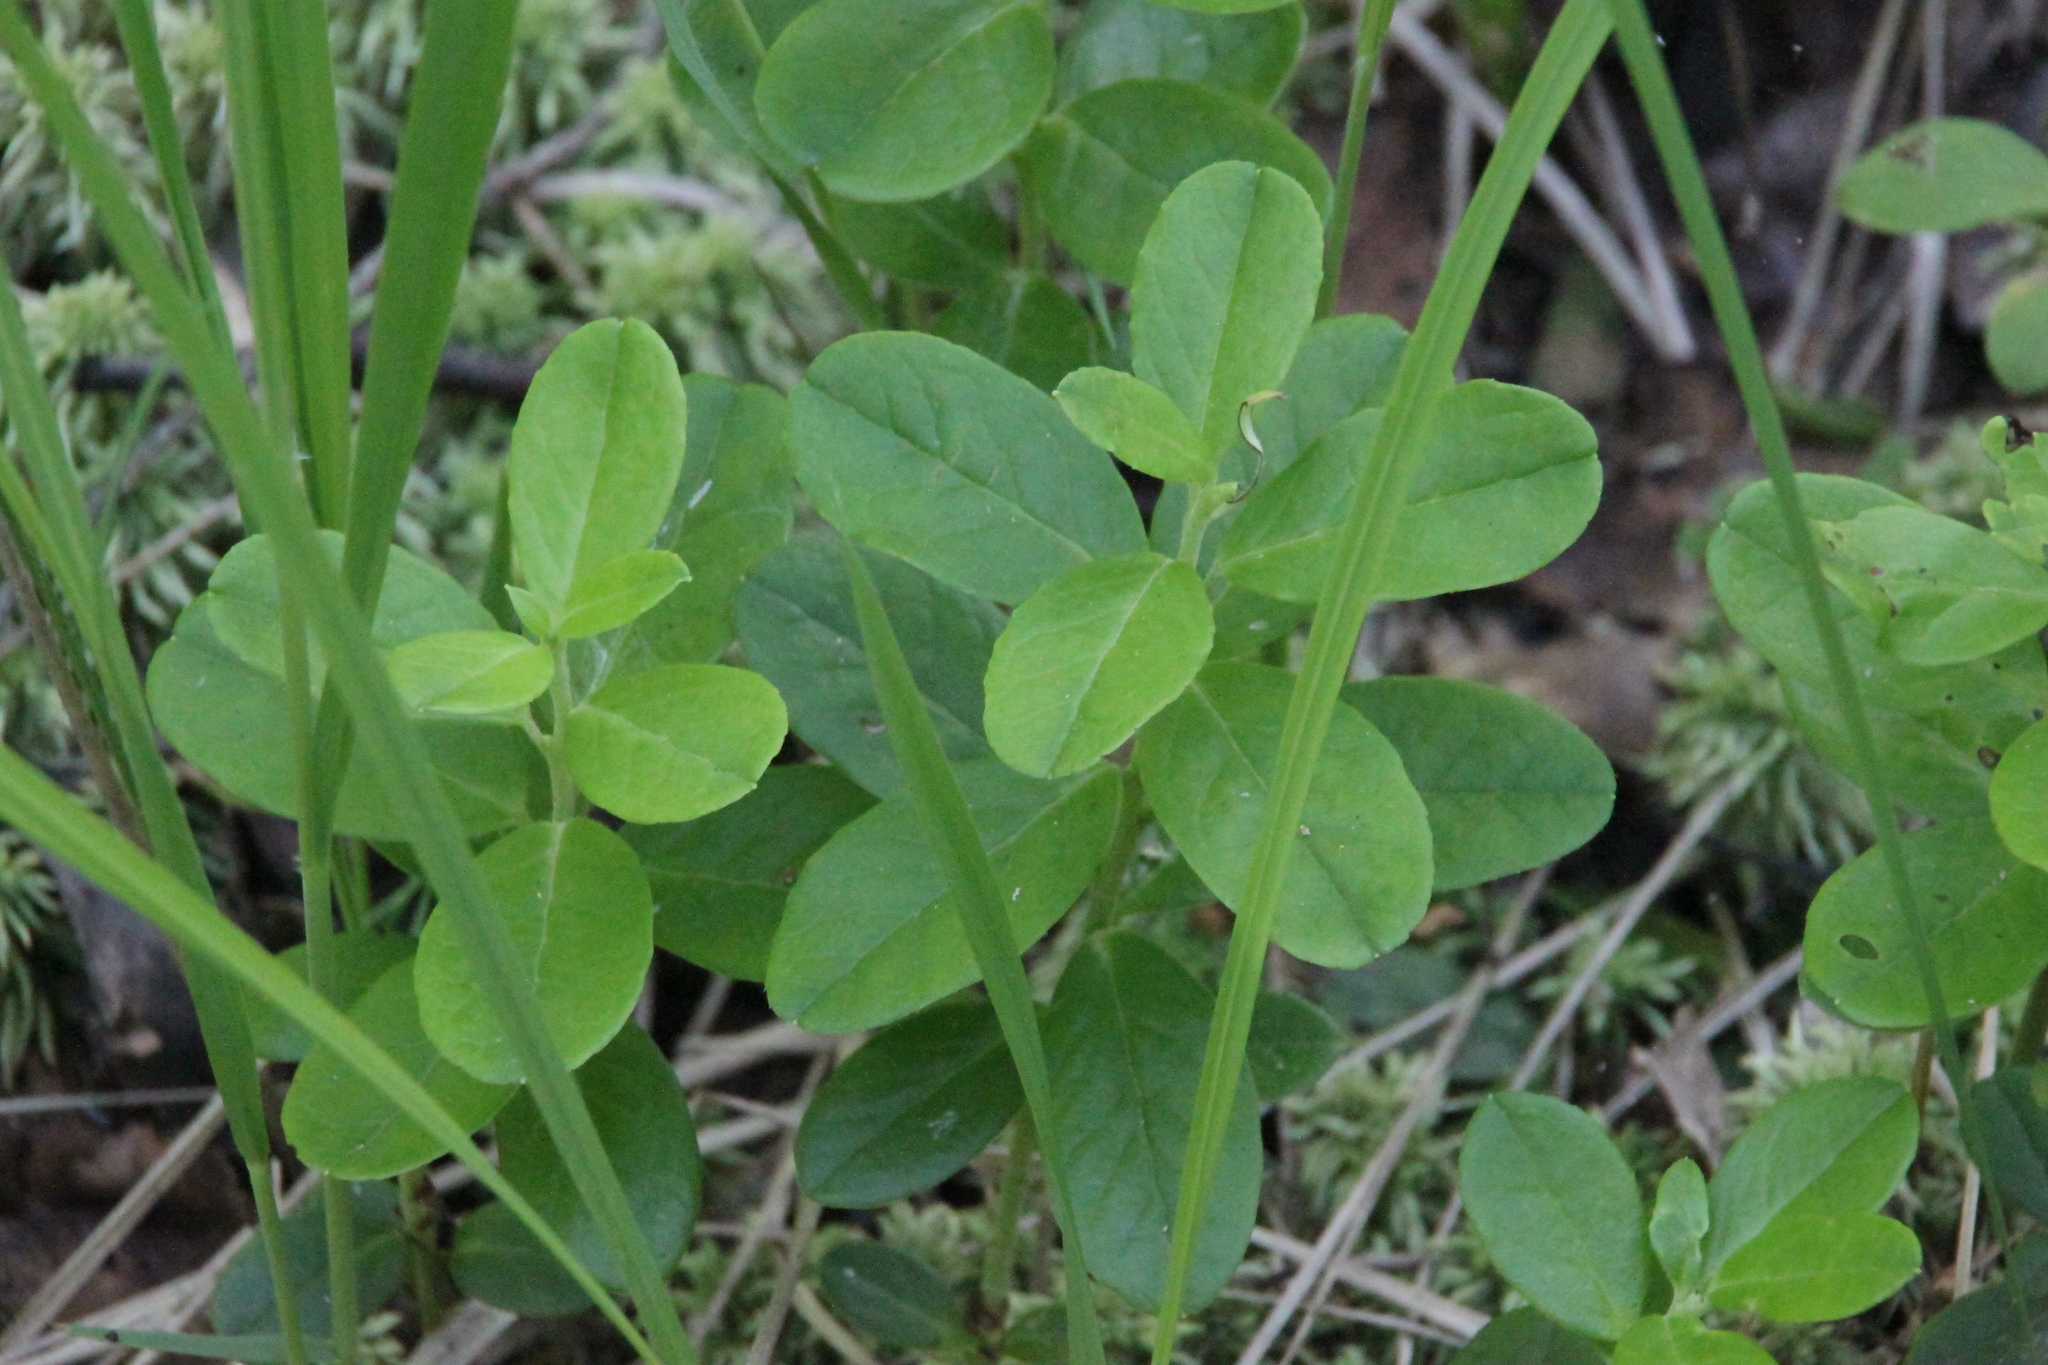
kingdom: Plantae
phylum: Tracheophyta
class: Magnoliopsida
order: Ericales
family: Ericaceae
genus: Vaccinium
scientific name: Vaccinium vitis-idaea
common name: Cowberry
